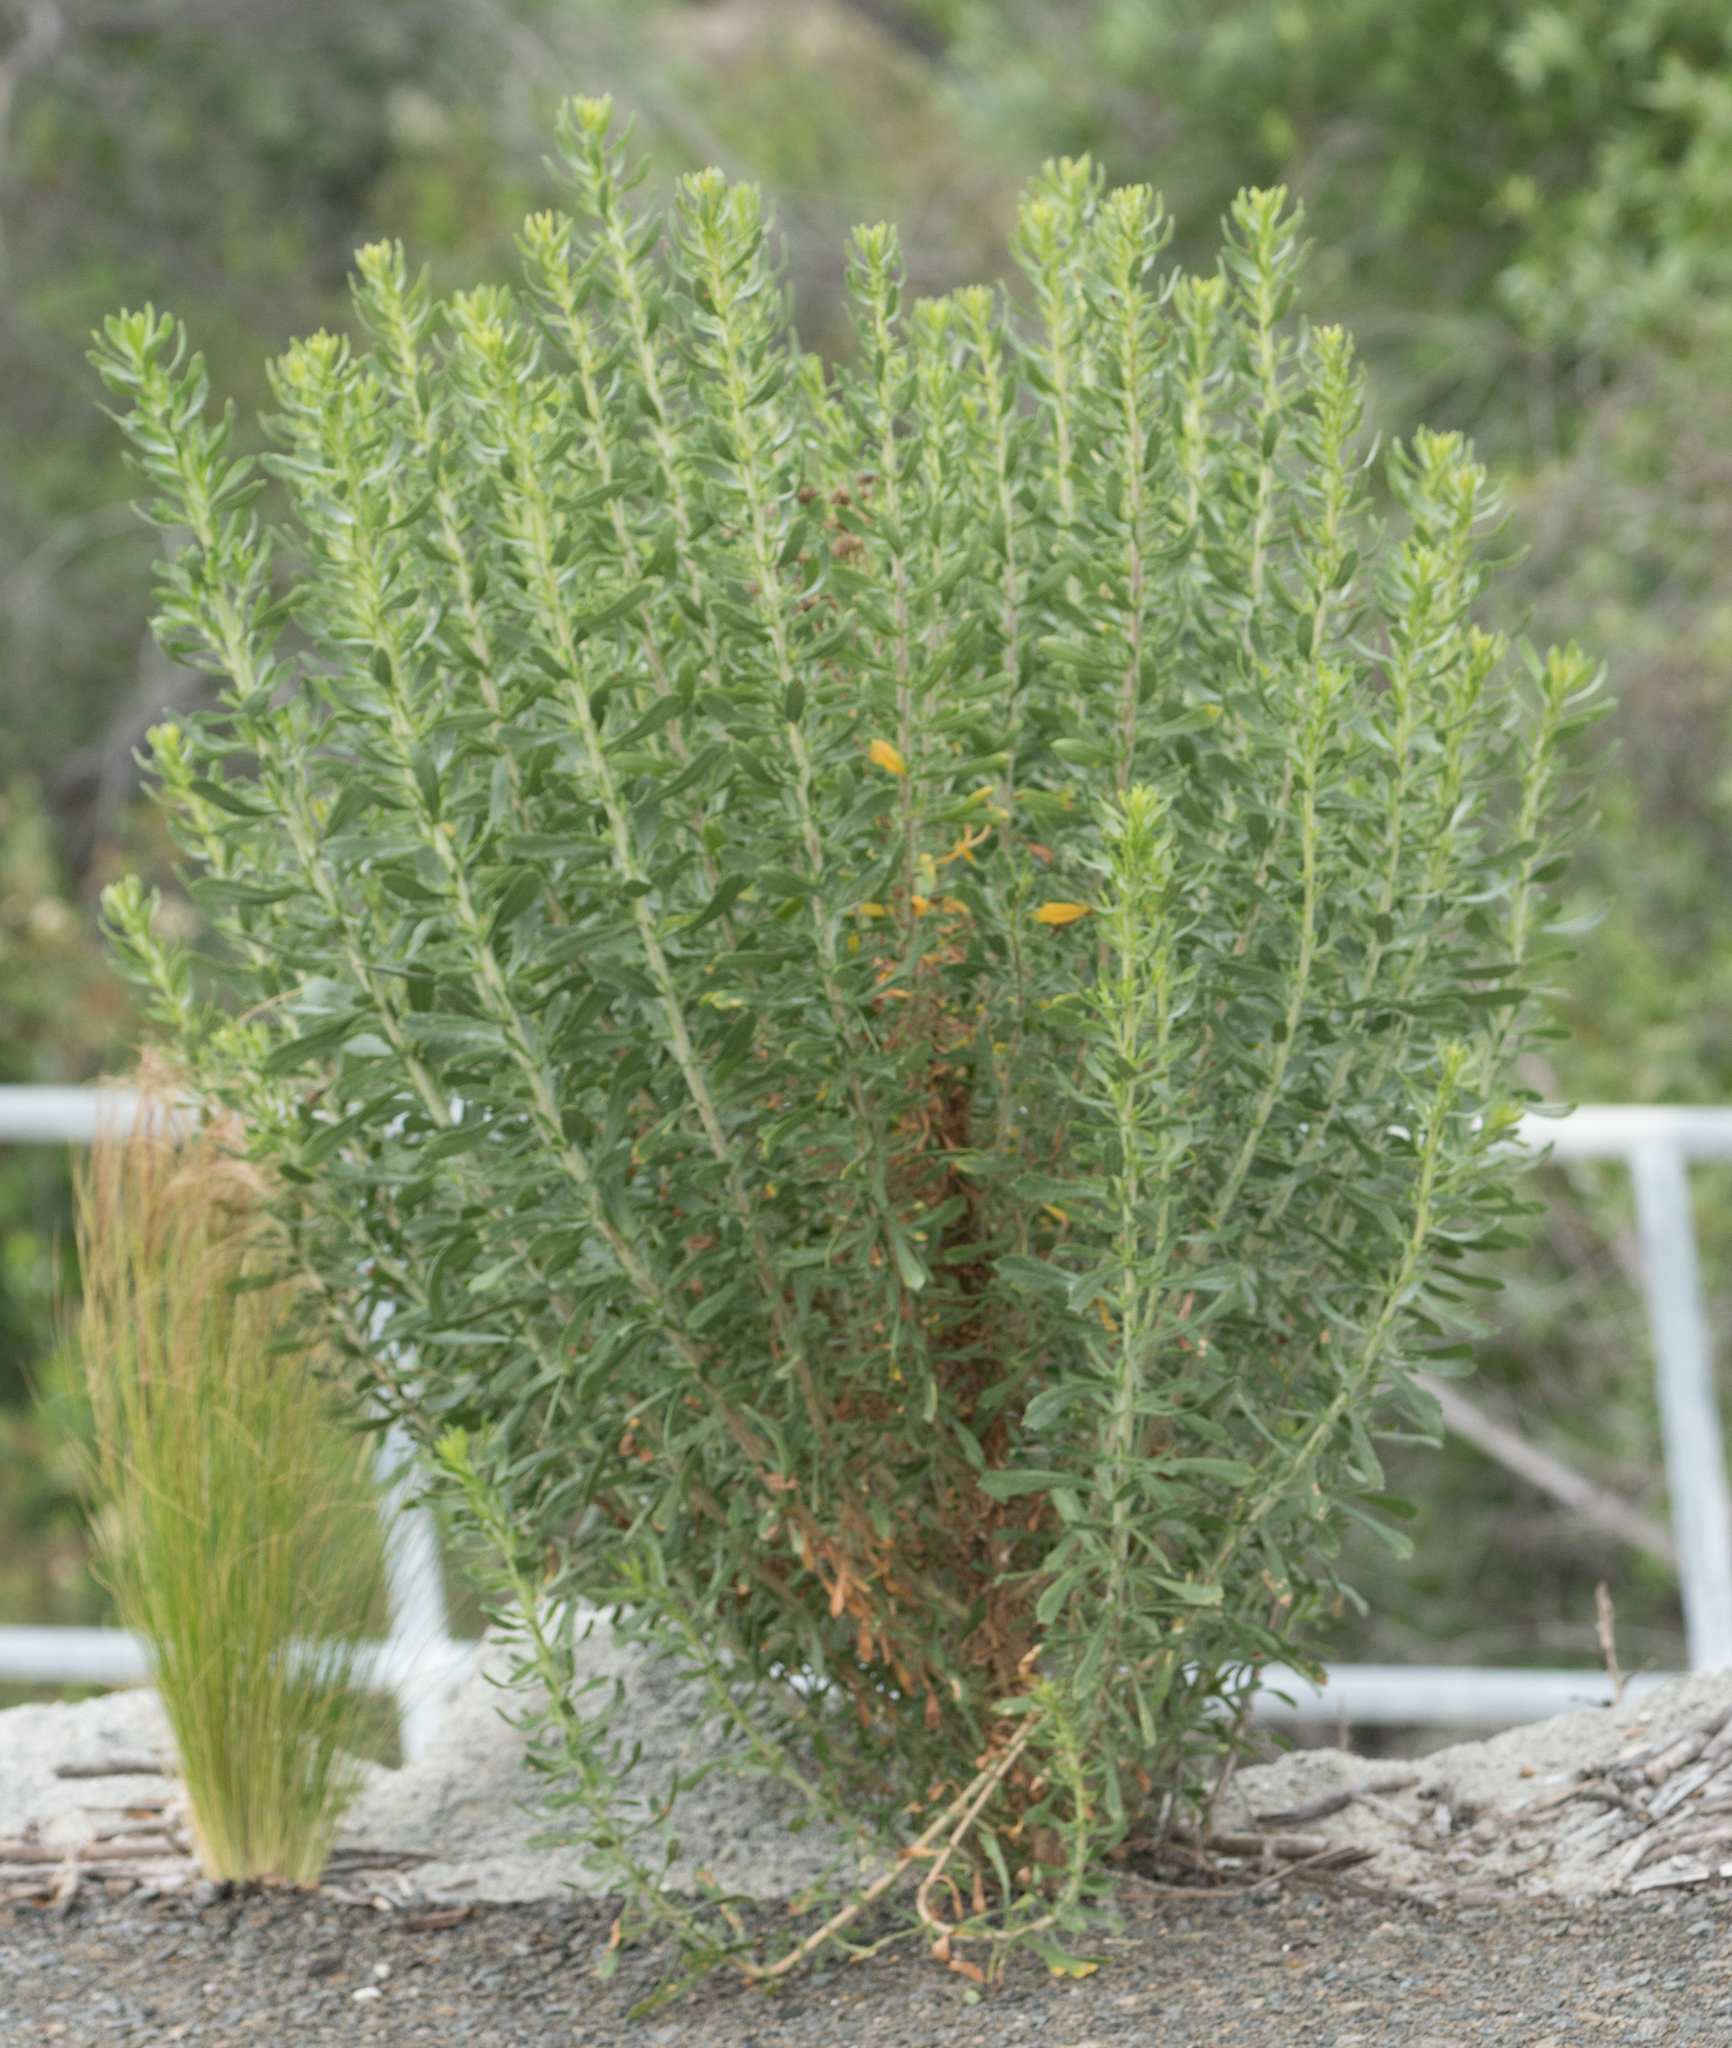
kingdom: Plantae
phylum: Tracheophyta
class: Magnoliopsida
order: Asterales
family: Asteraceae
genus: Isocoma
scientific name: Isocoma menziesii
